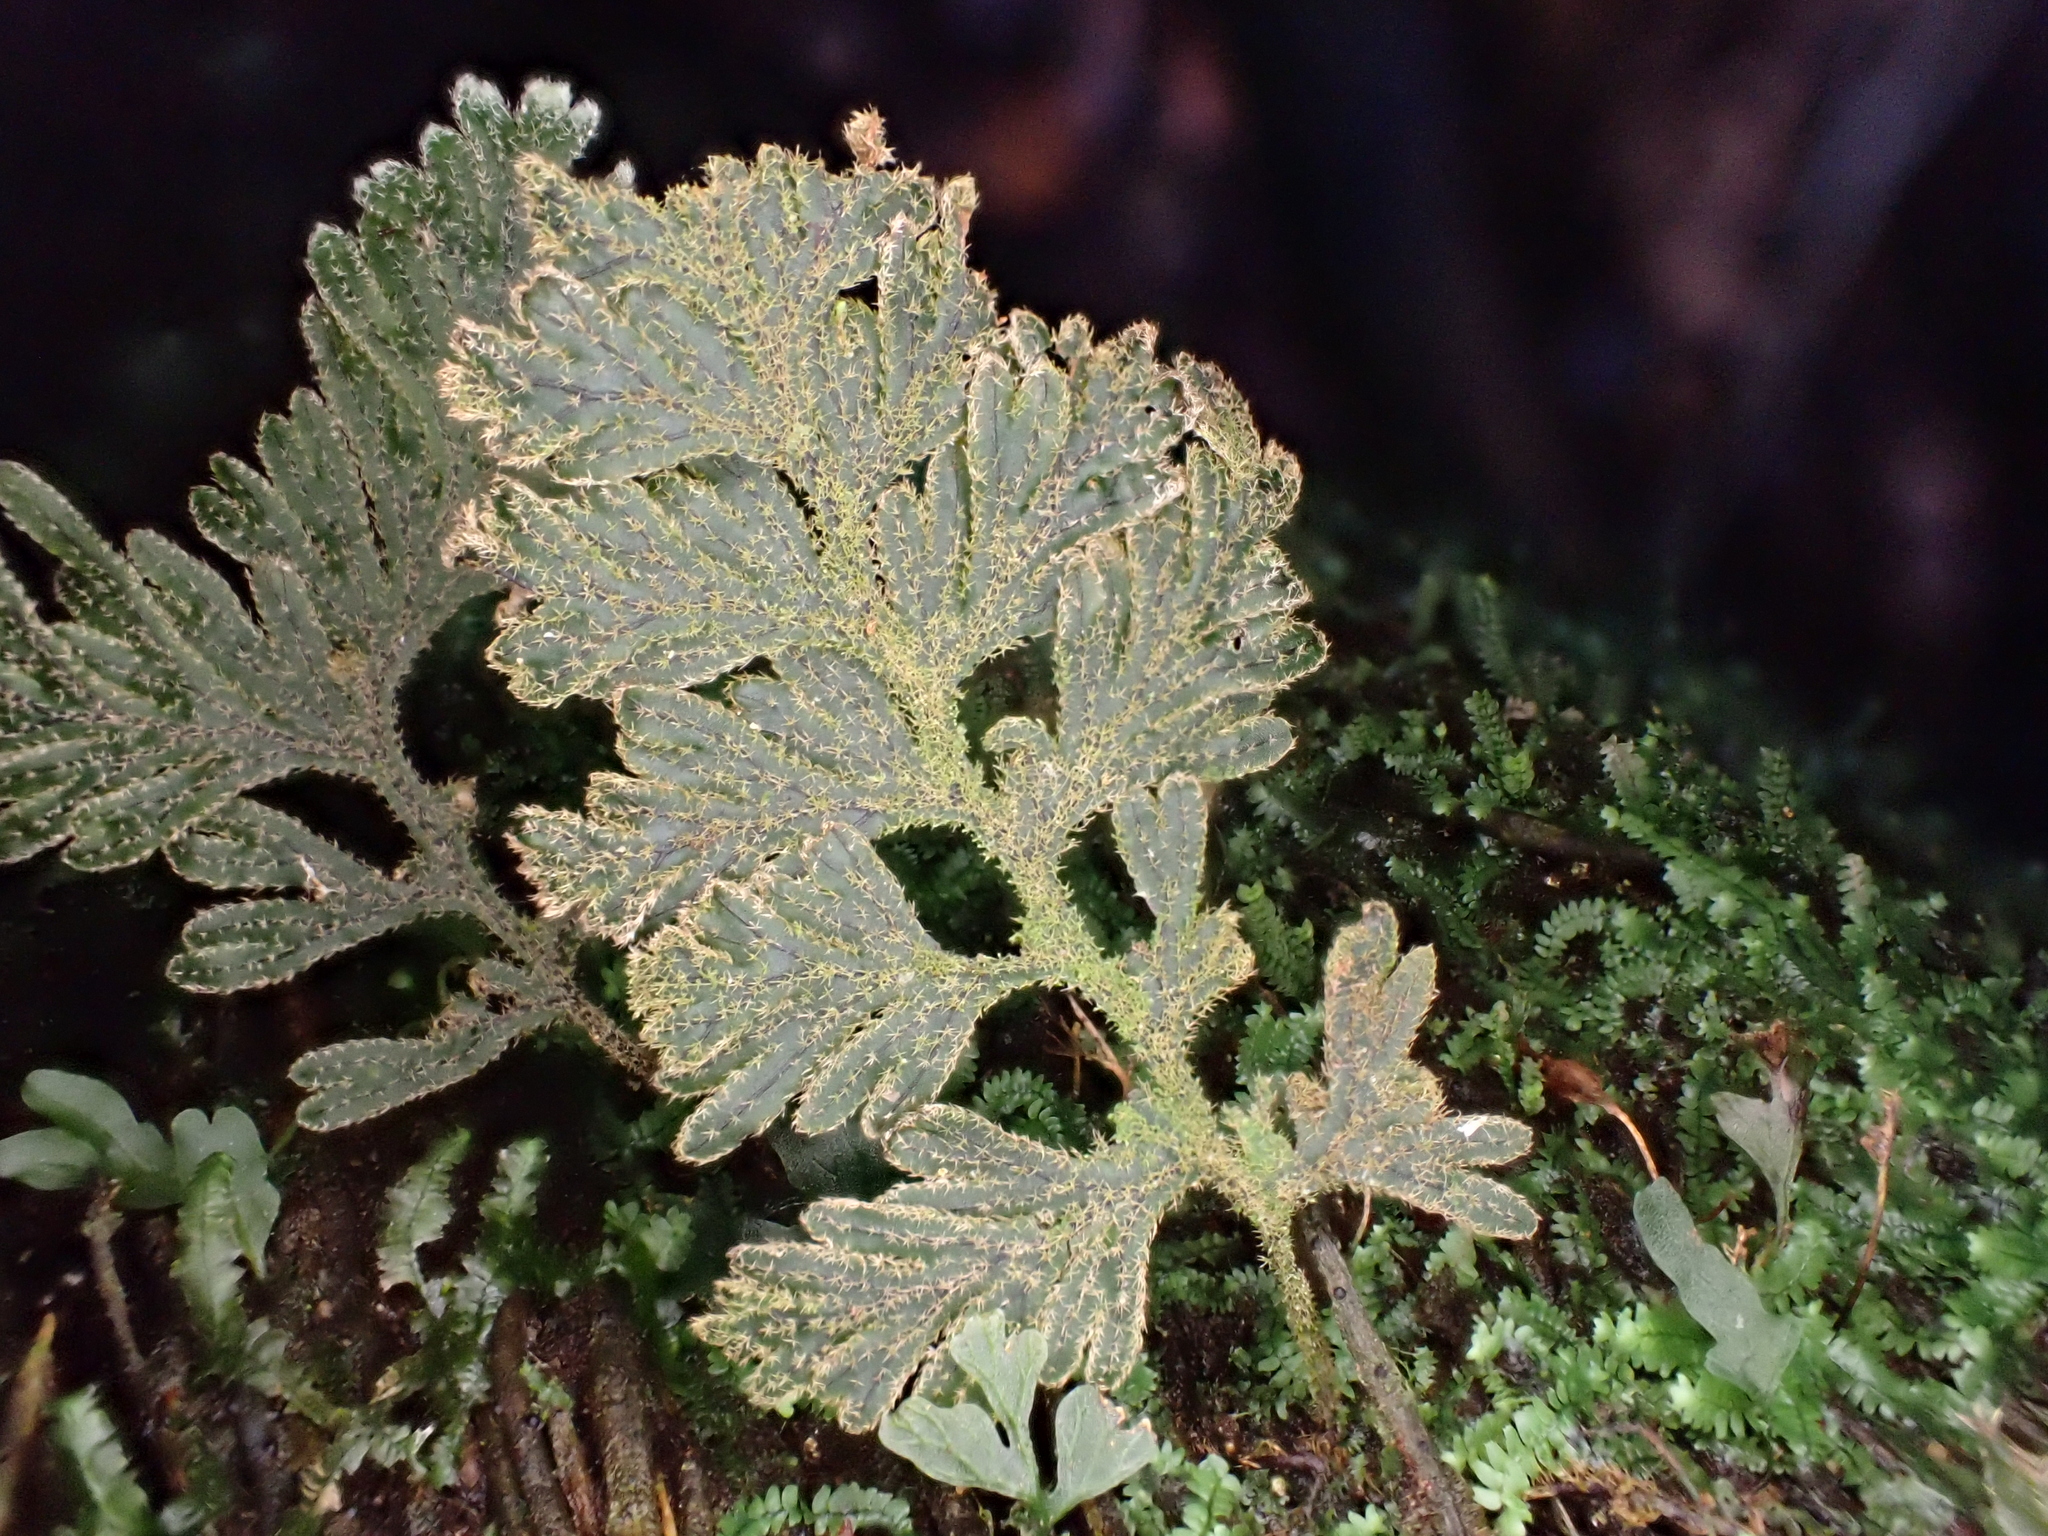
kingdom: Plantae
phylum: Tracheophyta
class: Polypodiopsida
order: Hymenophyllales
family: Hymenophyllaceae
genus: Hymenophyllum
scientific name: Hymenophyllum frankliniae
